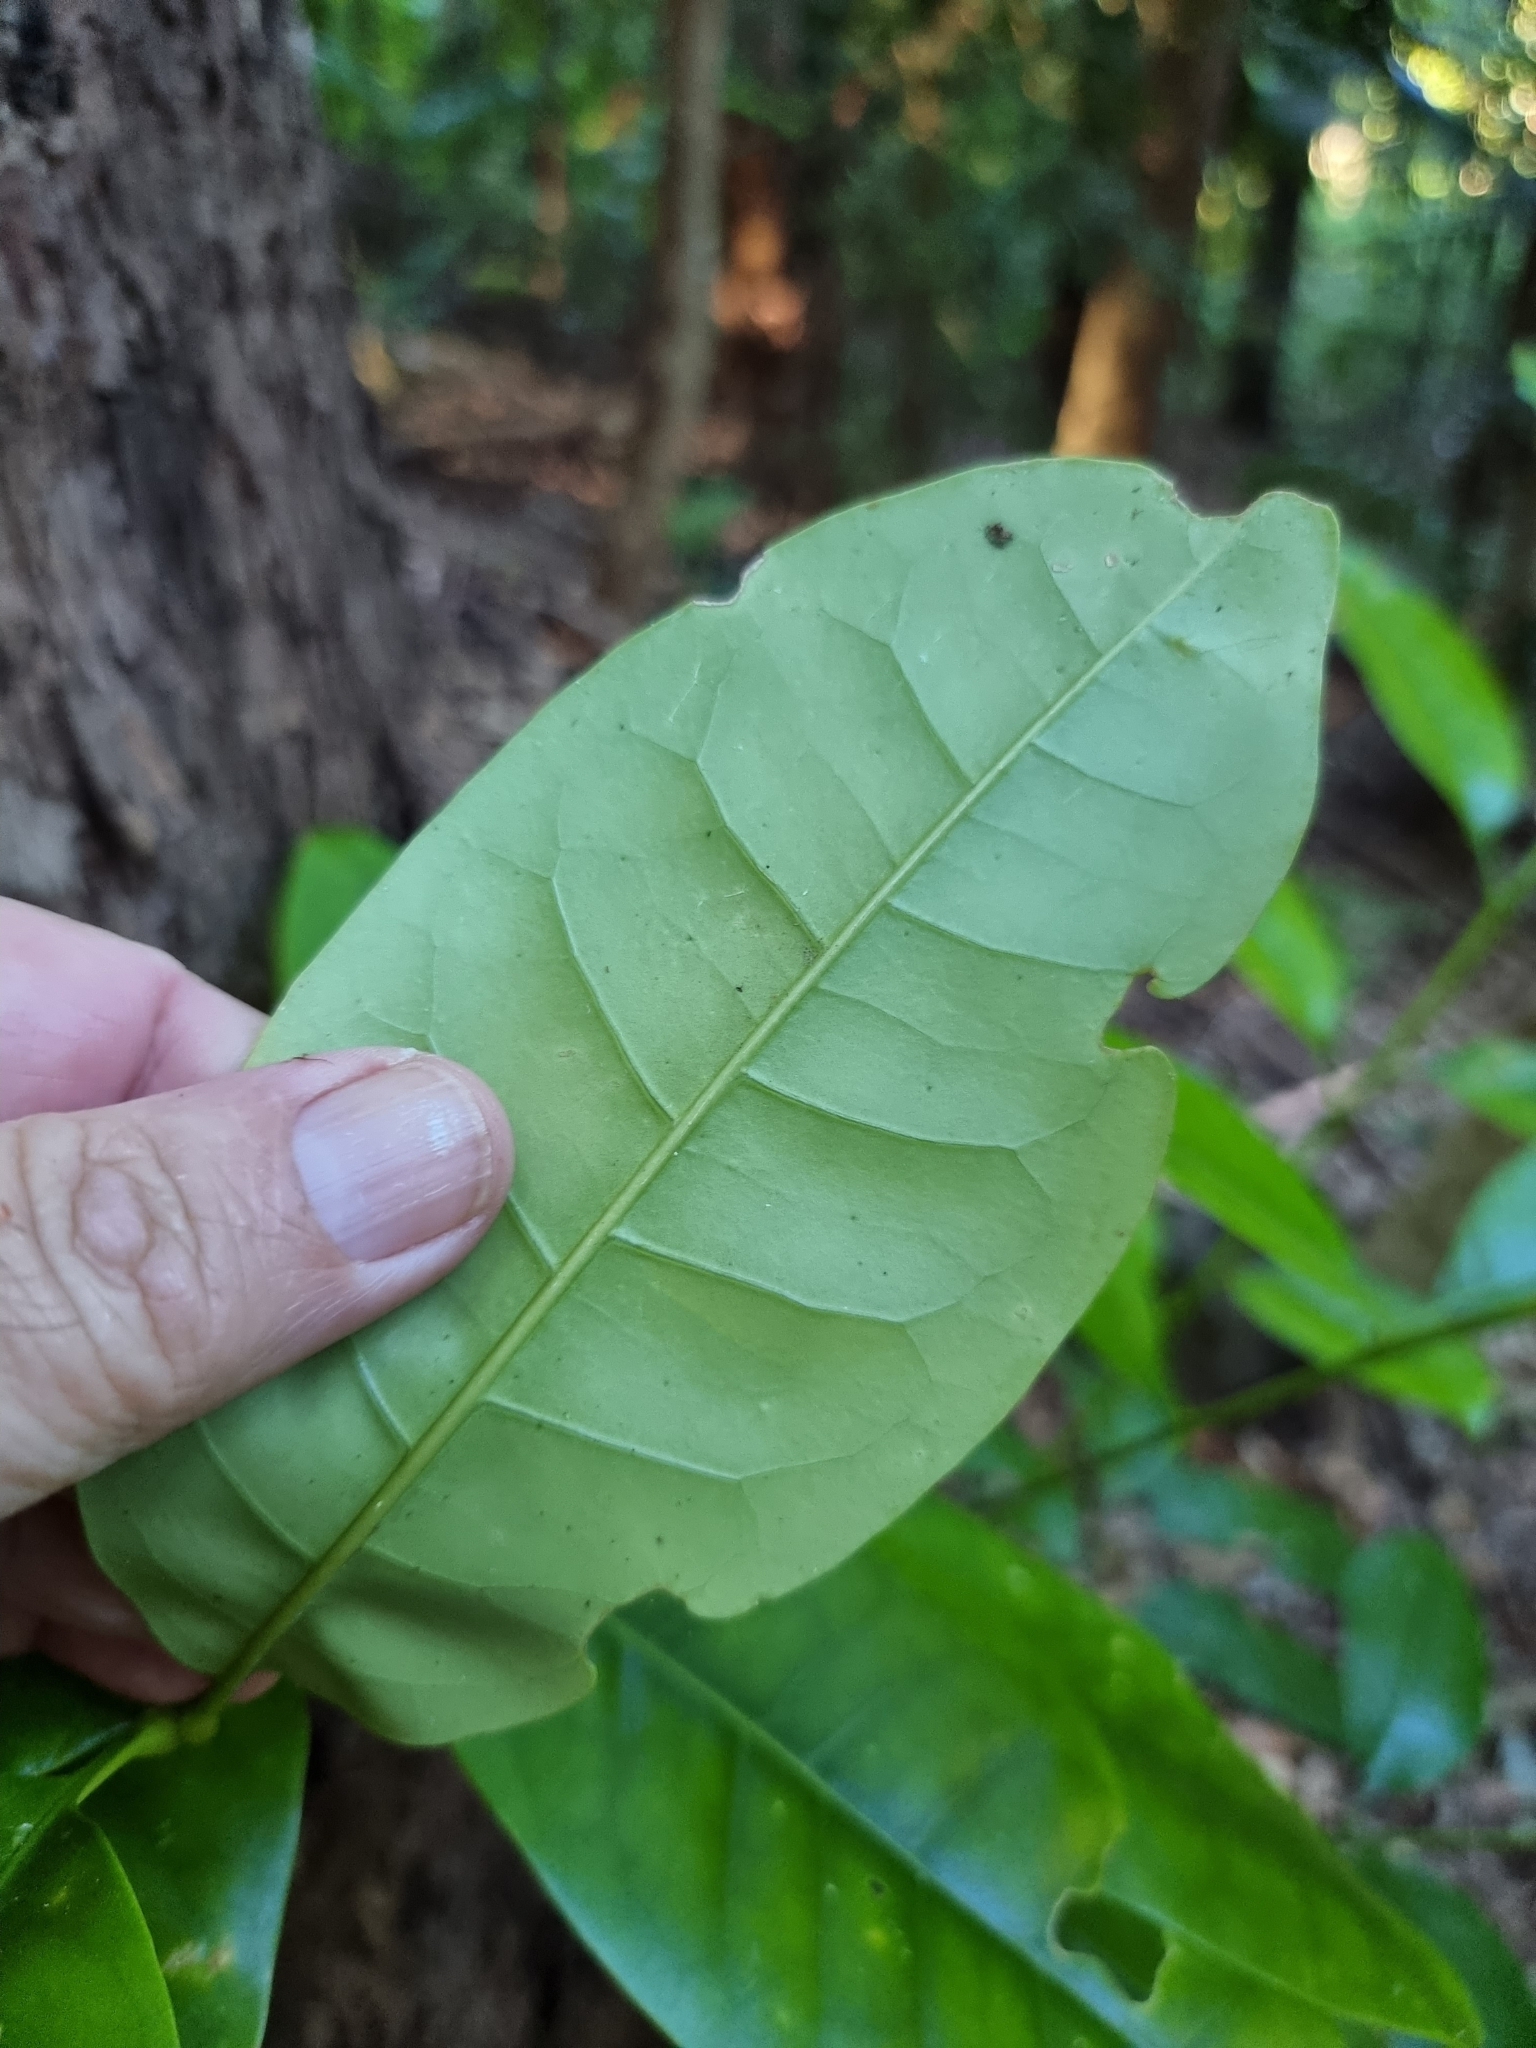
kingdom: Plantae
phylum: Tracheophyta
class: Magnoliopsida
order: Malpighiales
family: Euphorbiaceae
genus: Claoxylon
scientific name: Claoxylon australe
